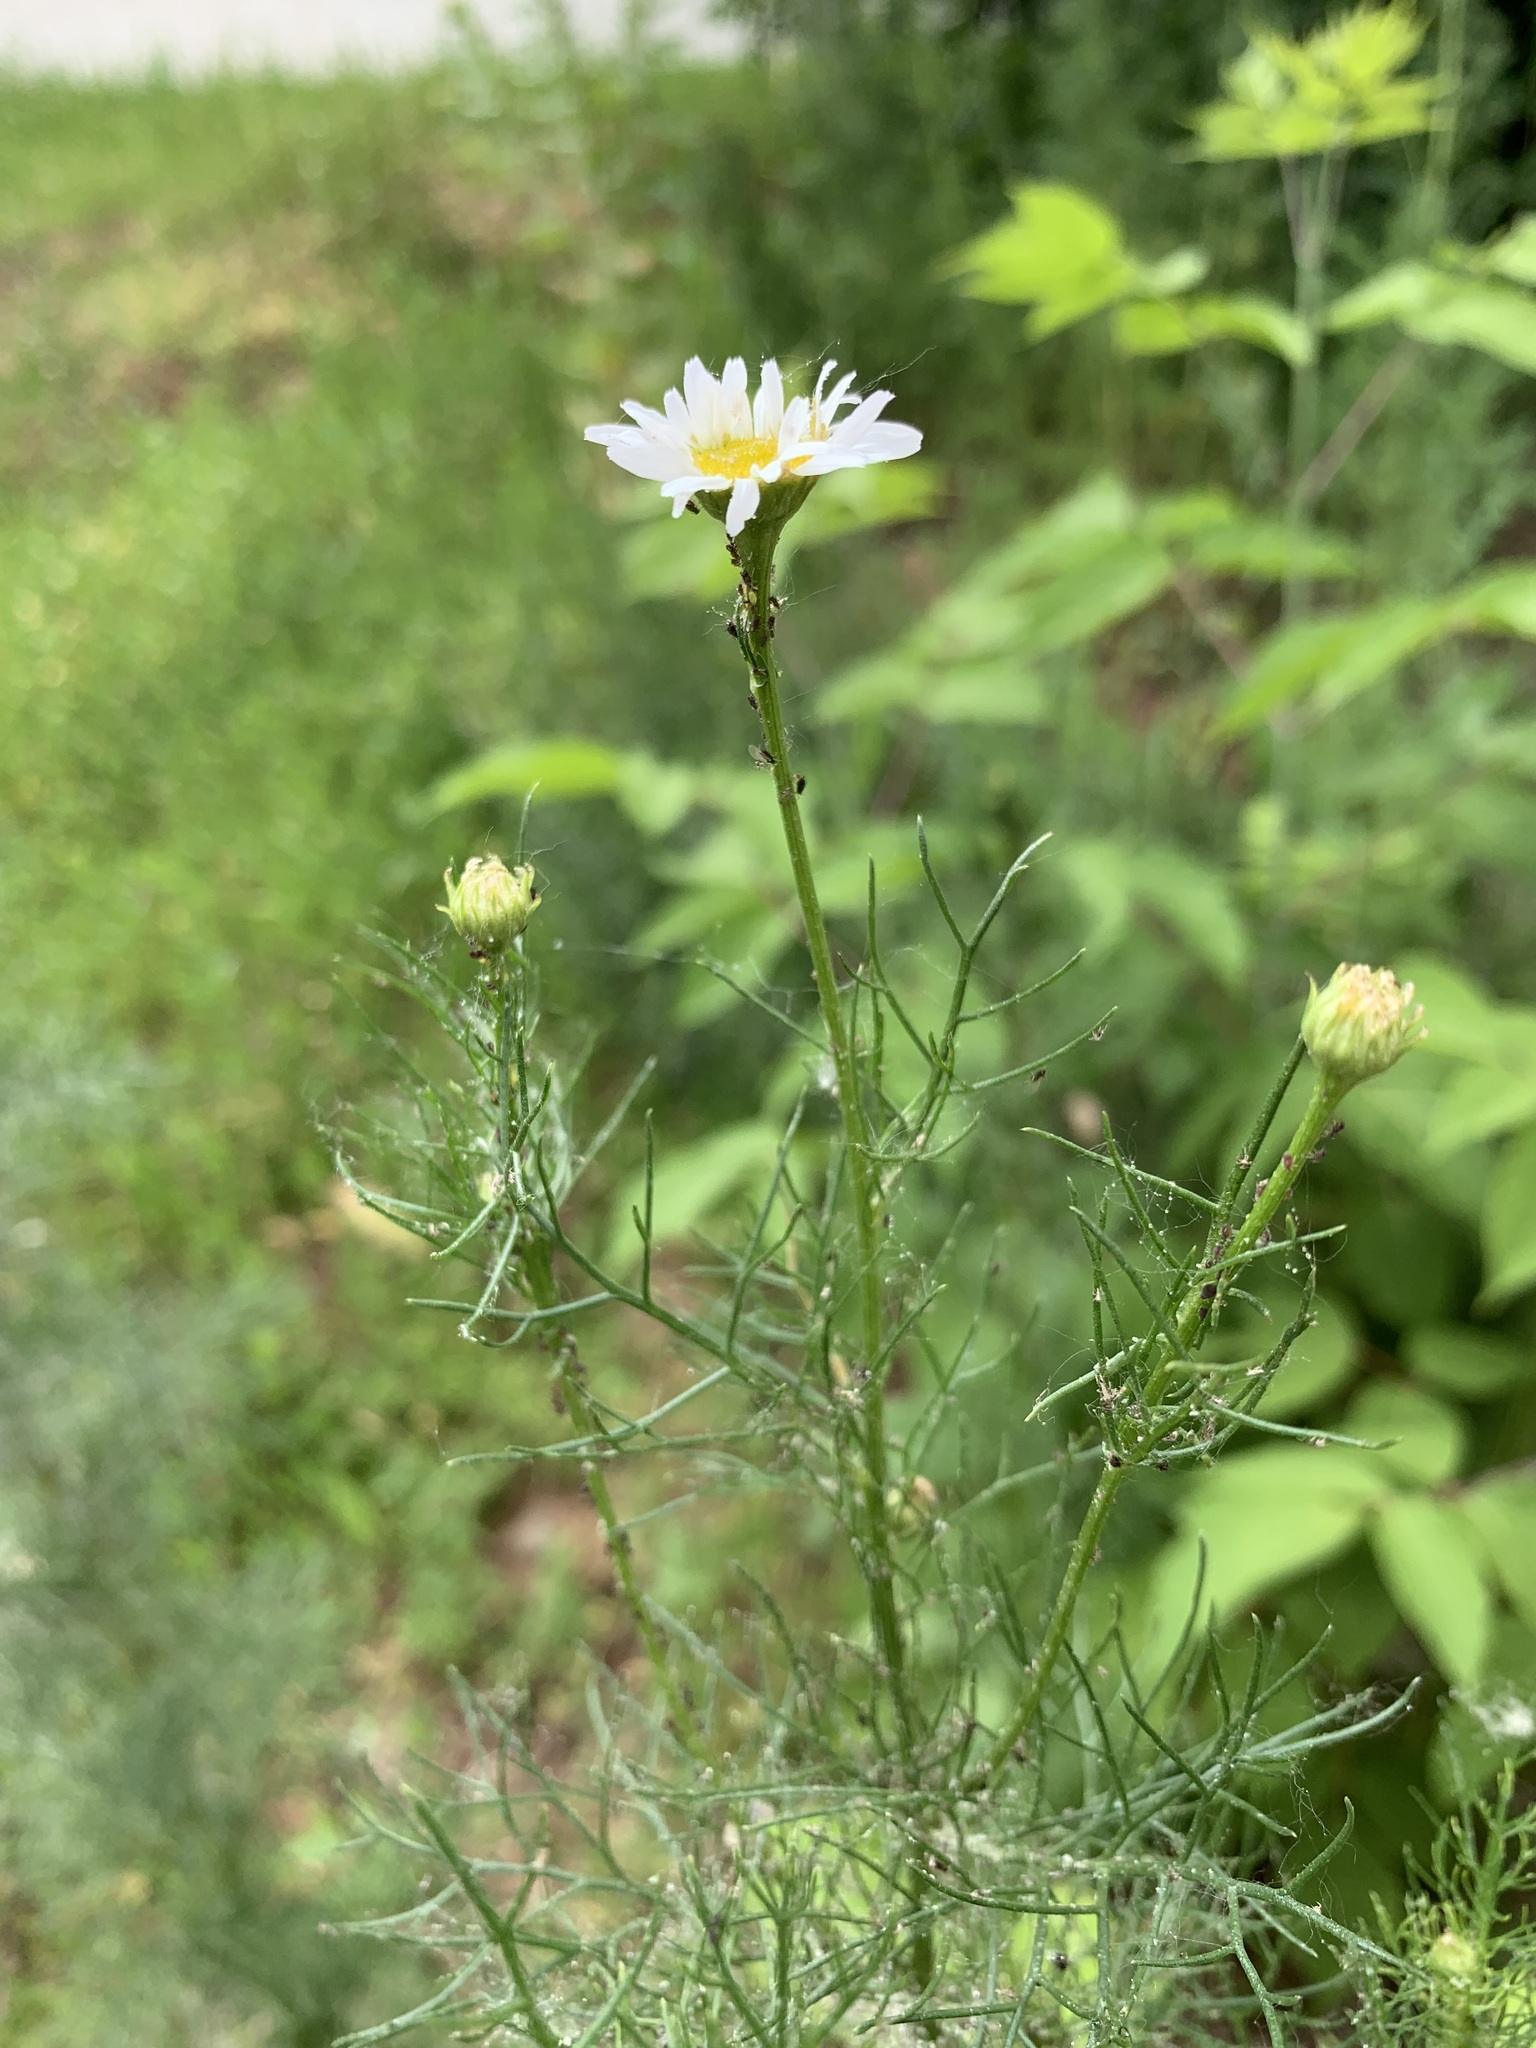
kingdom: Plantae
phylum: Tracheophyta
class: Magnoliopsida
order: Asterales
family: Asteraceae
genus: Tripleurospermum
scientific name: Tripleurospermum inodorum
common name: Scentless mayweed
